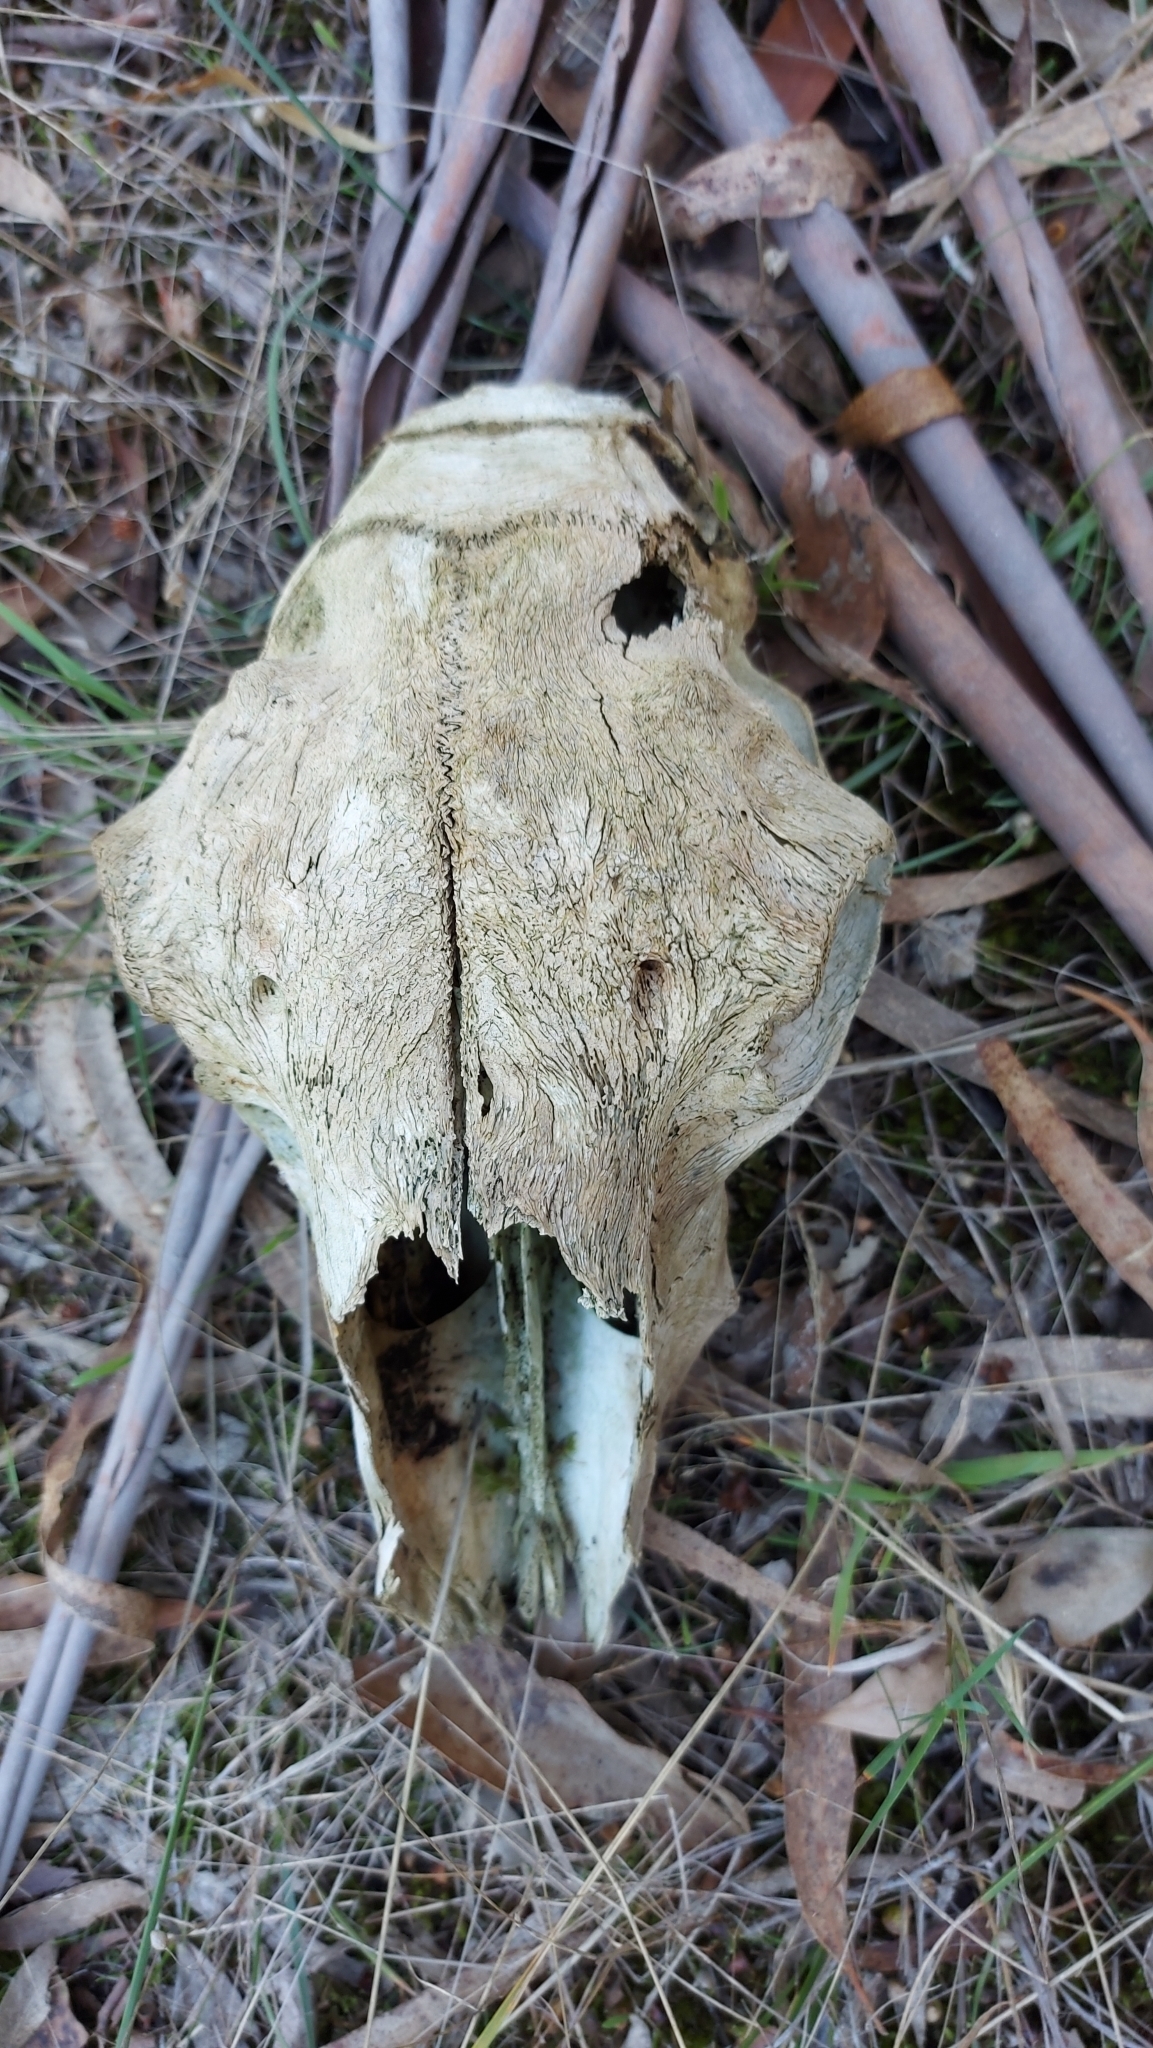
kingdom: Animalia
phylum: Chordata
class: Mammalia
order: Artiodactyla
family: Bovidae
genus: Ovis
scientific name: Ovis aries
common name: Domestic sheep
